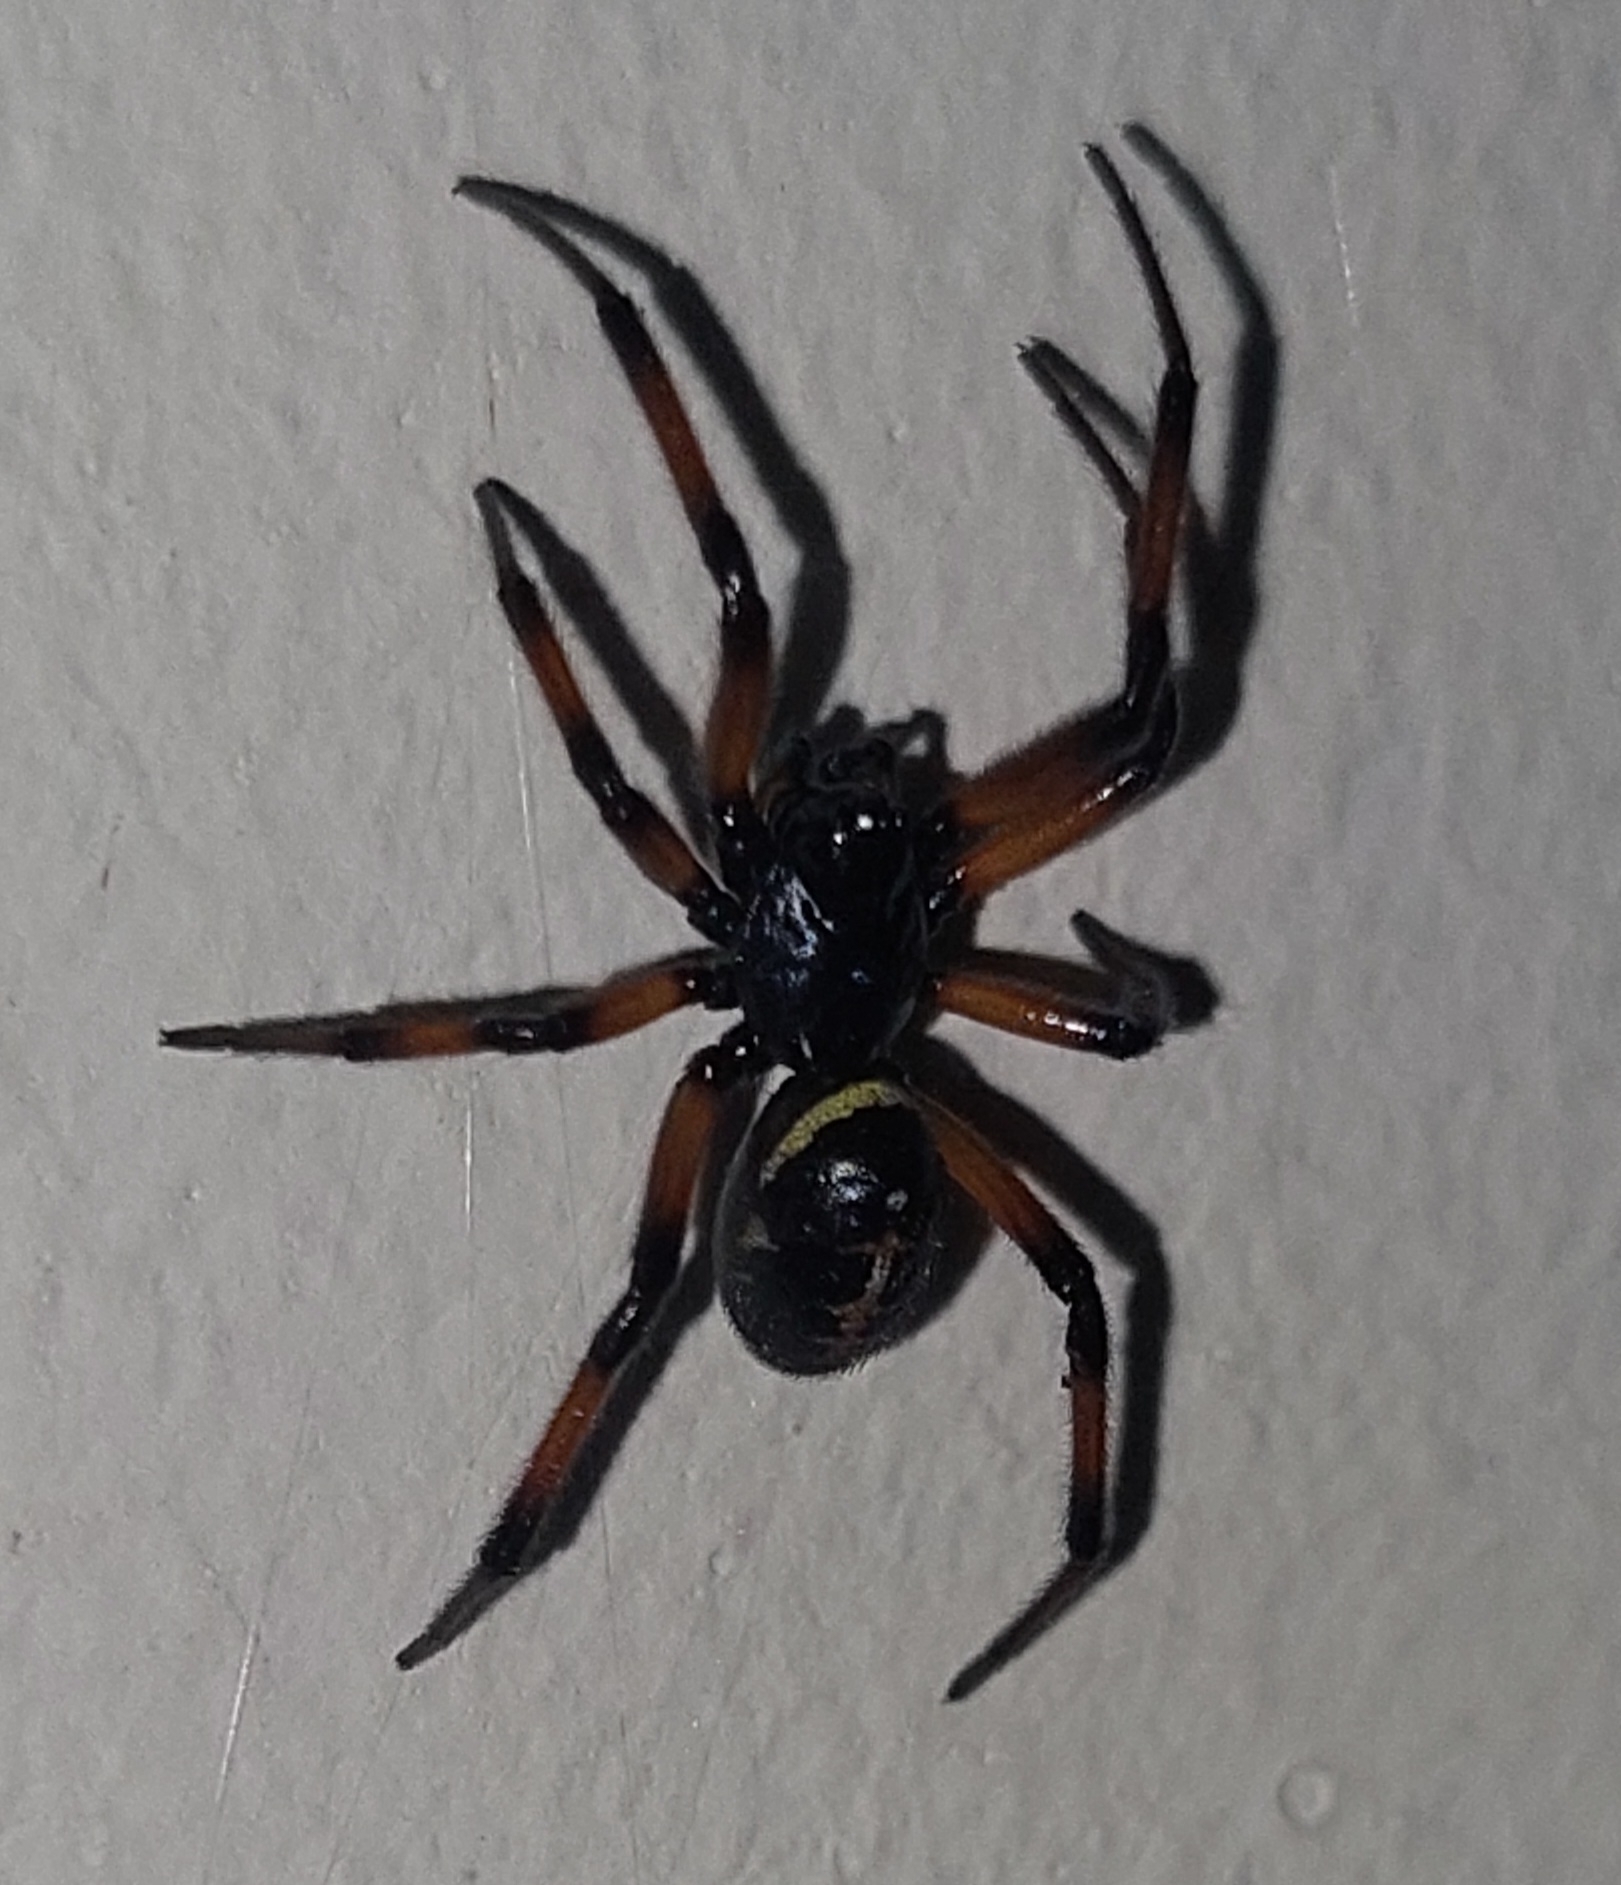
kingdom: Animalia
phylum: Arthropoda
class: Arachnida
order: Araneae
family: Theridiidae
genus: Steatoda
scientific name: Steatoda paykulliana
